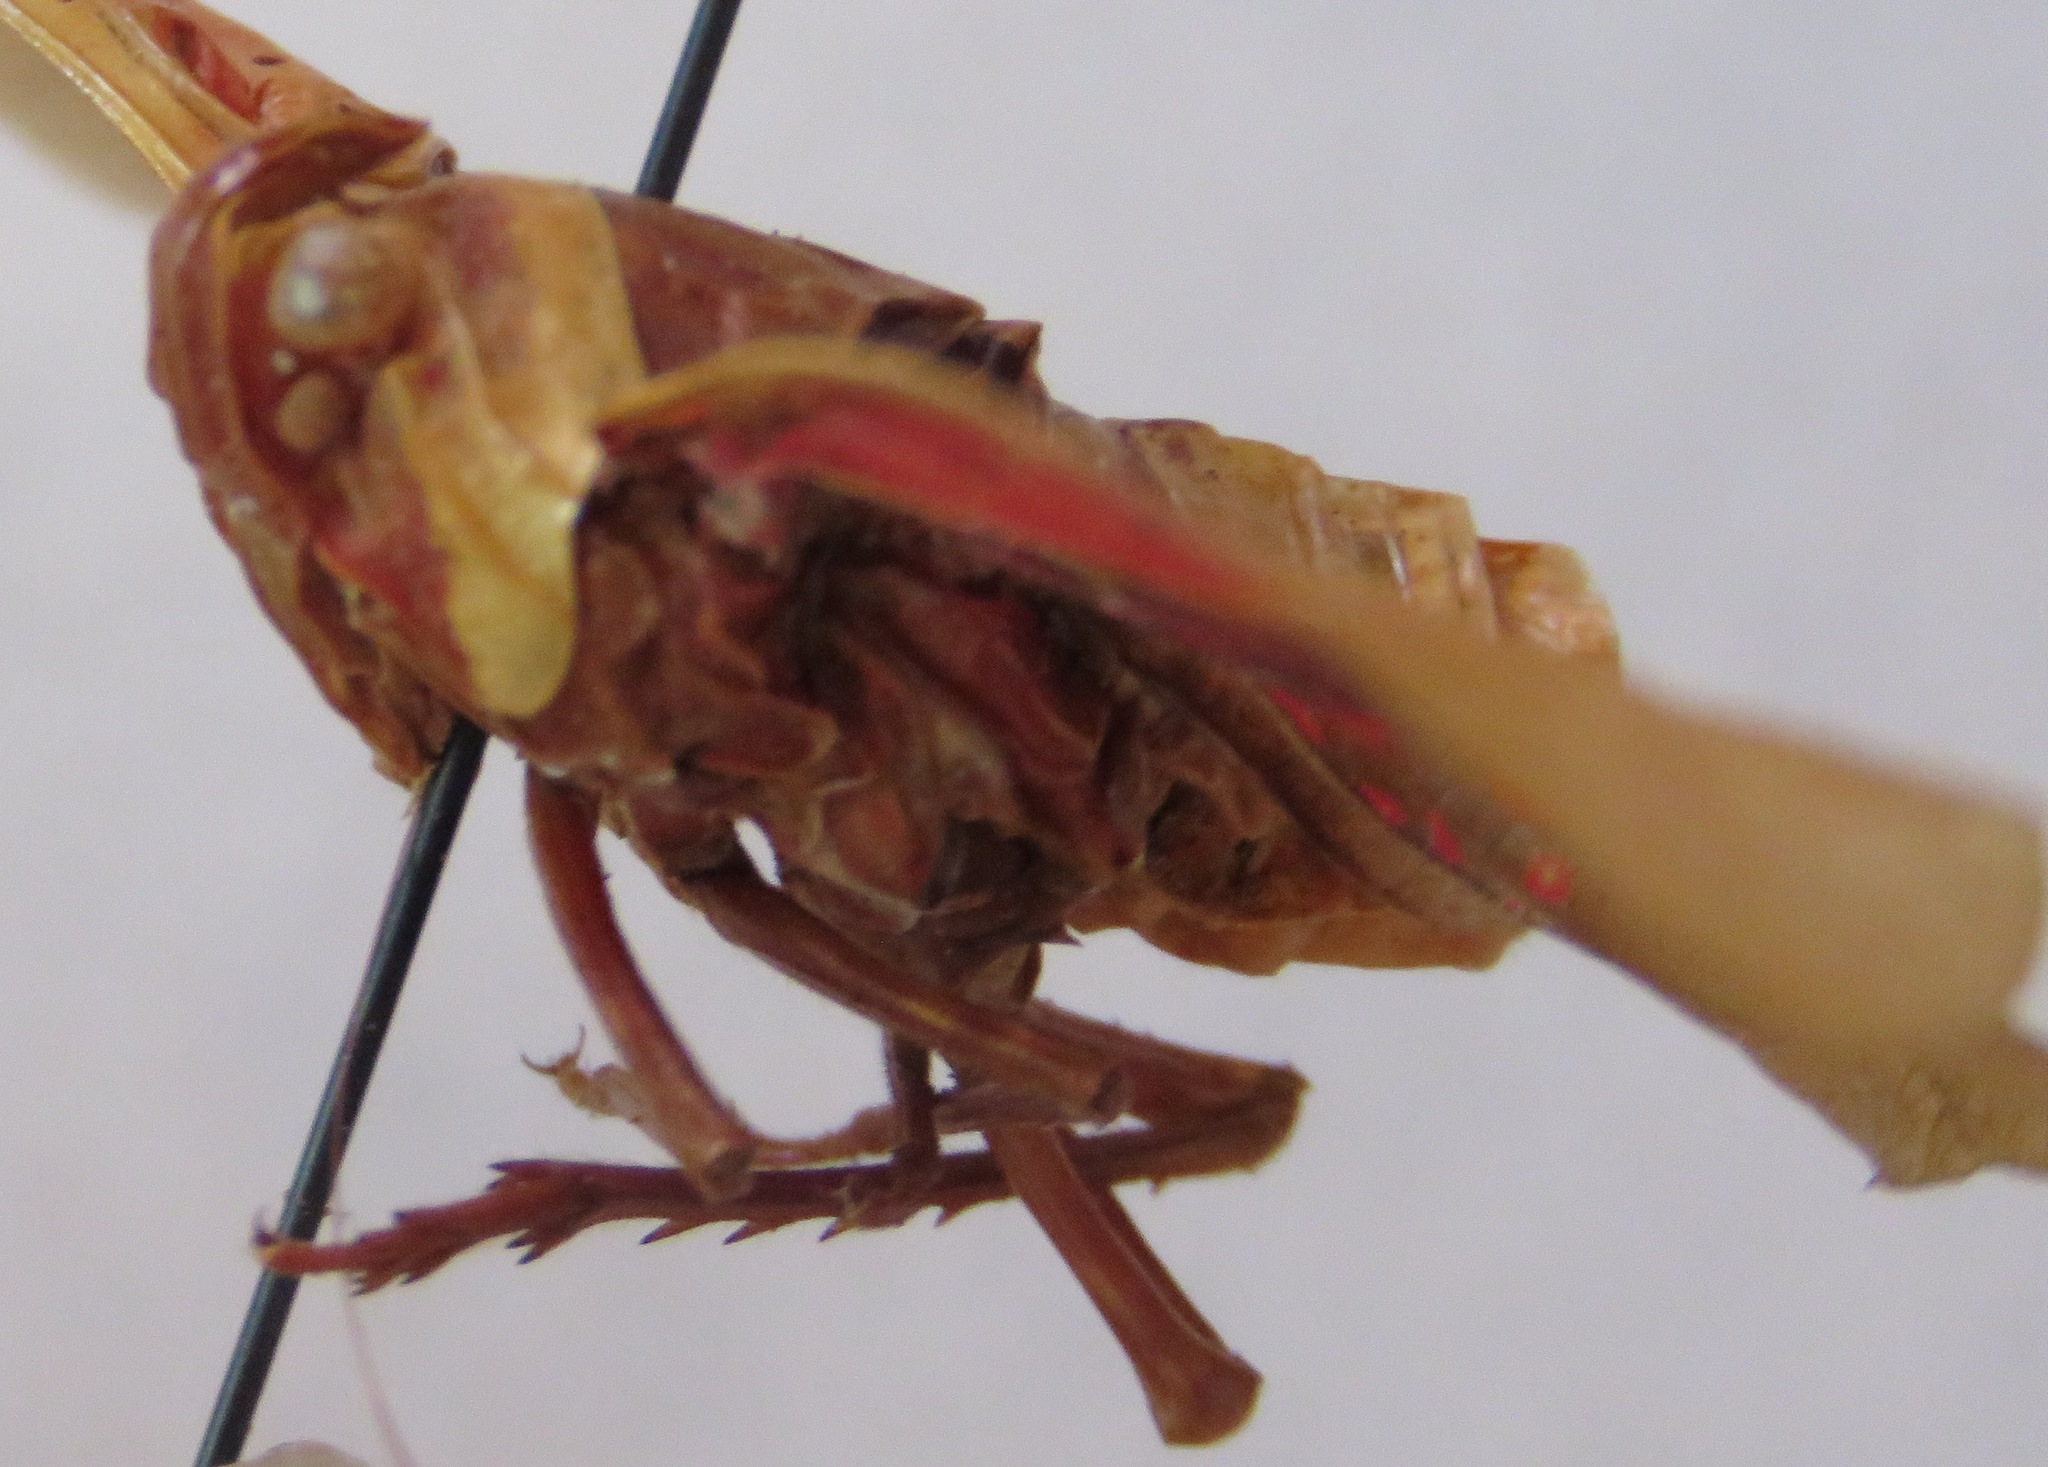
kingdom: Animalia
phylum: Arthropoda
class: Insecta
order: Hemiptera
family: Fulgoridae
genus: Copidocephala
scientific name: Copidocephala guttata
